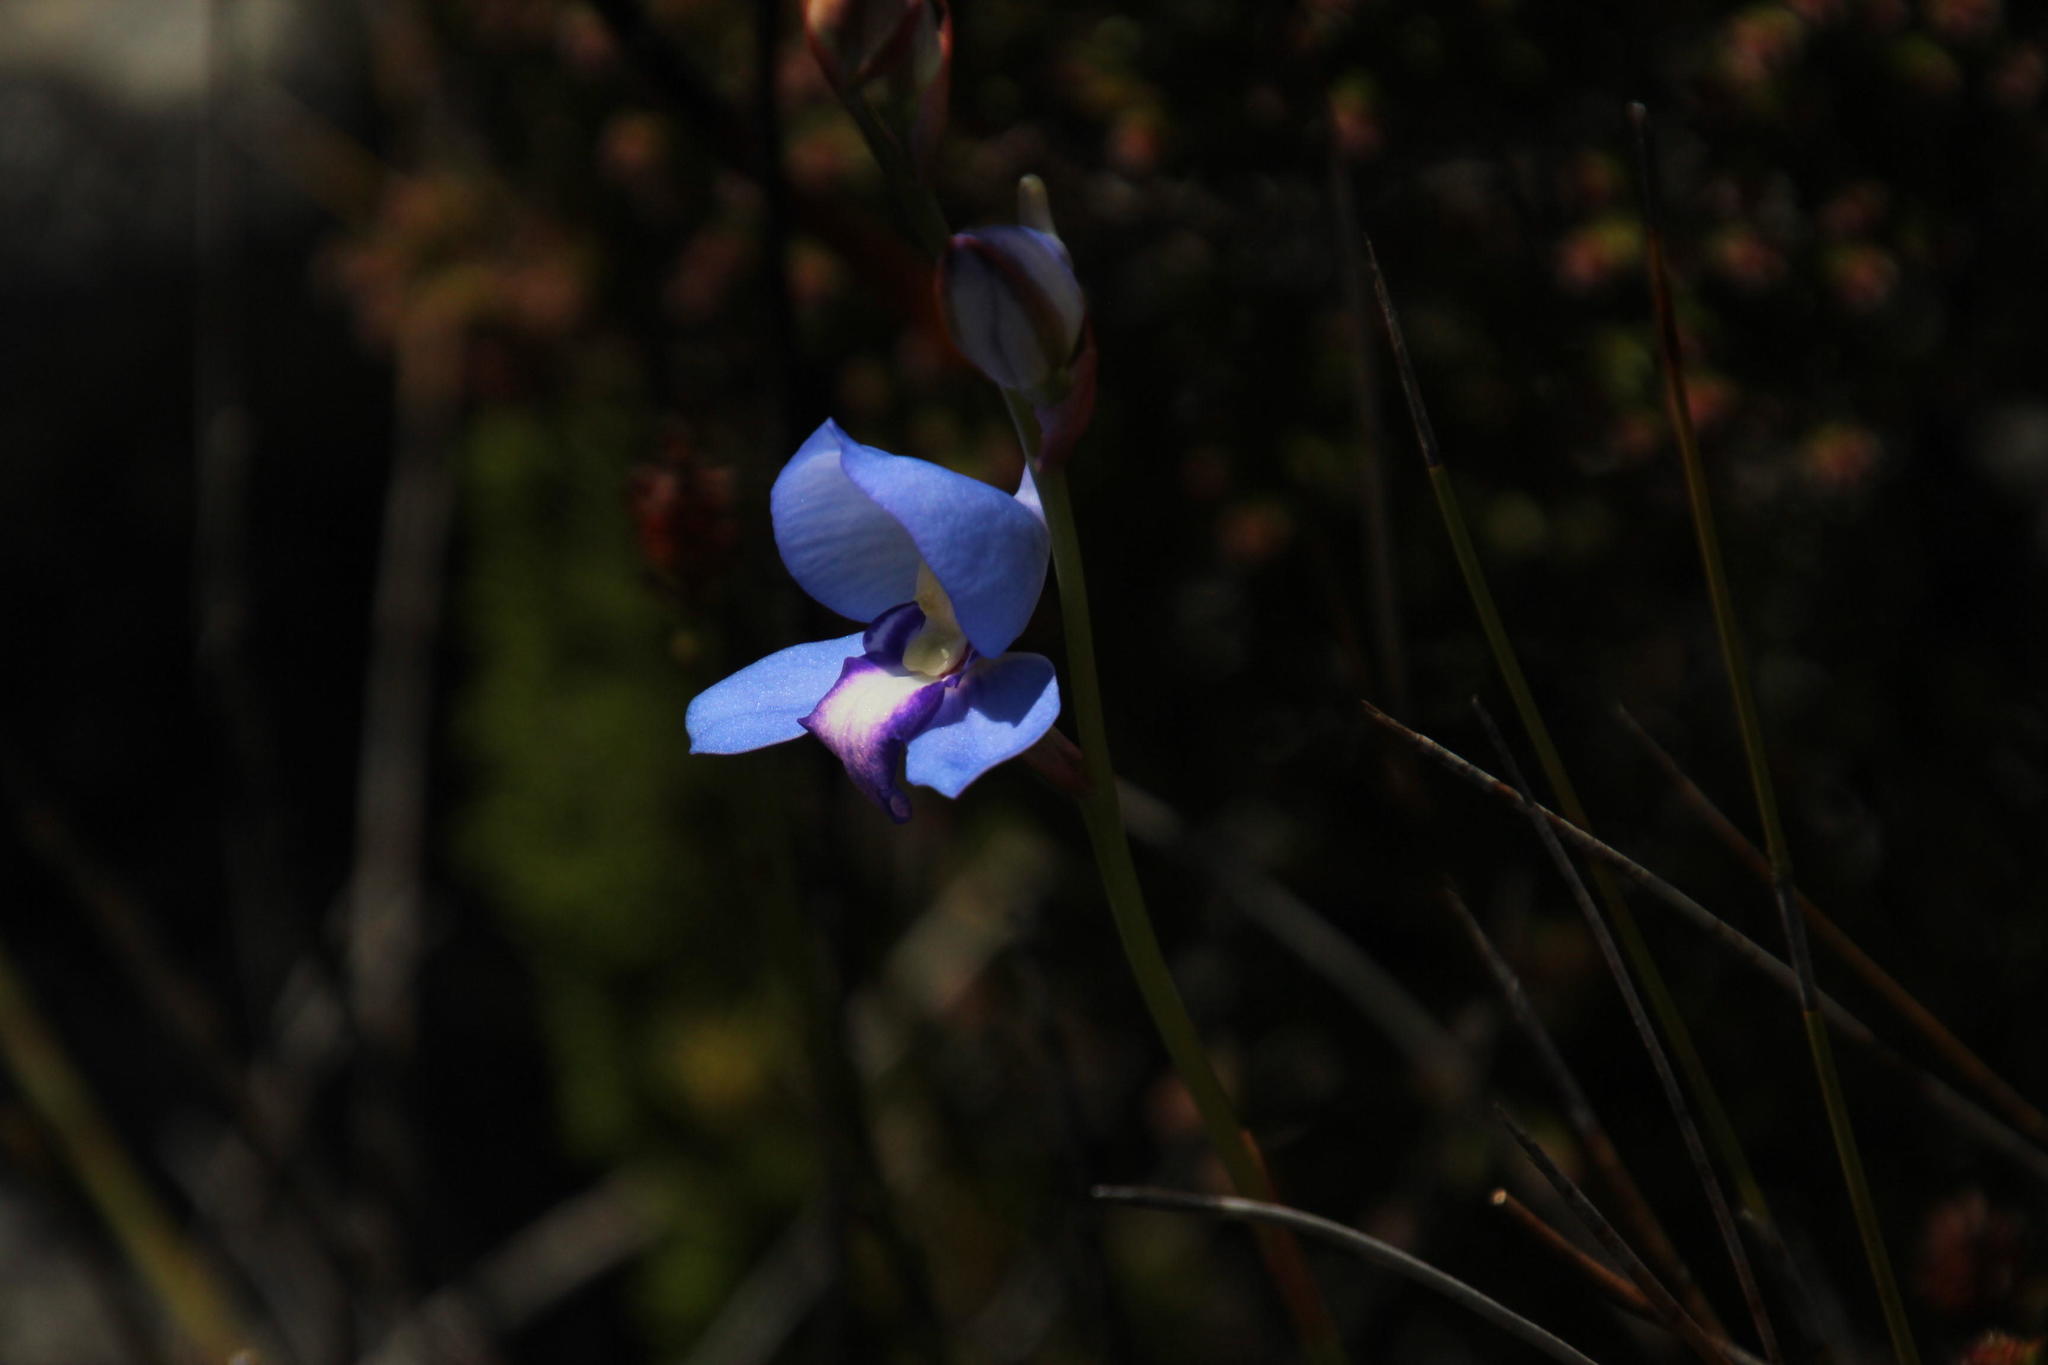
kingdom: Plantae
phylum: Tracheophyta
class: Liliopsida
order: Asparagales
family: Orchidaceae
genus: Disa
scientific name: Disa graminifolia
